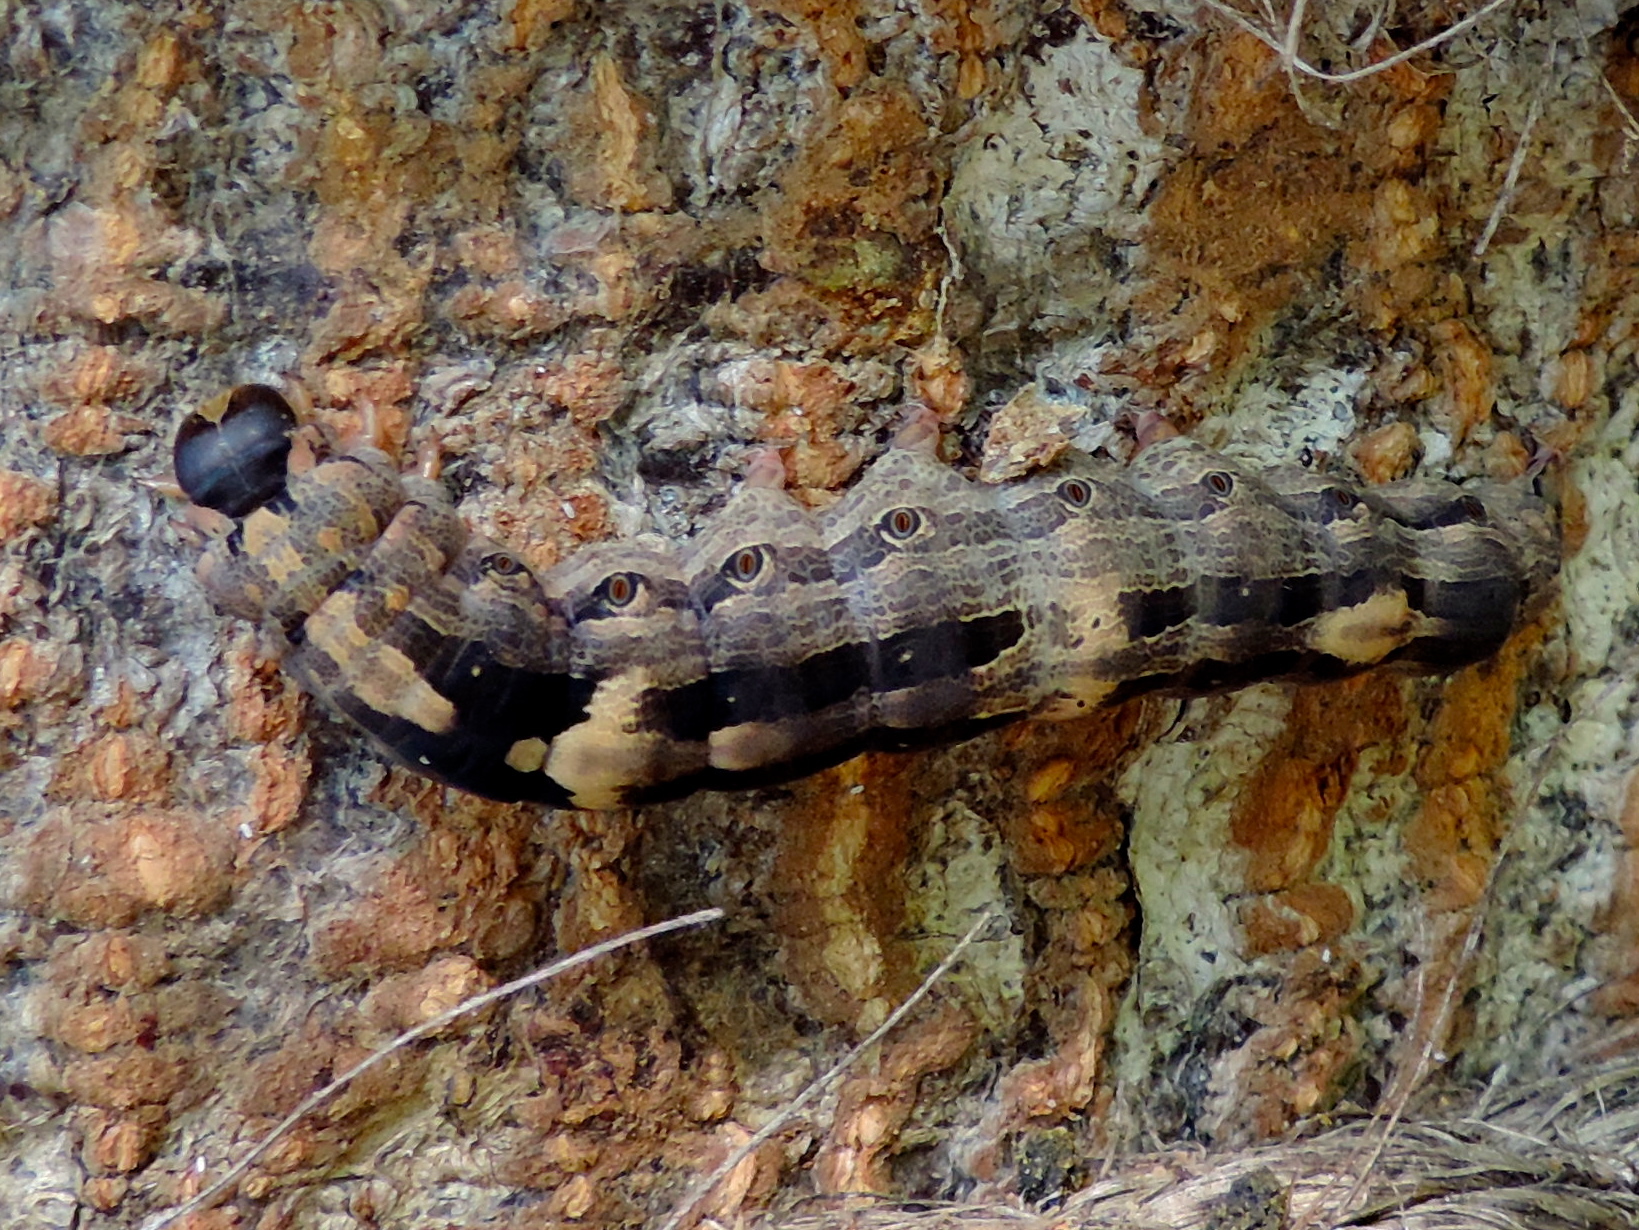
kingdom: Animalia
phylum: Arthropoda
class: Insecta
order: Lepidoptera
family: Erebidae
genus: Ascalapha
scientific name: Ascalapha odorata
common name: Black witch
